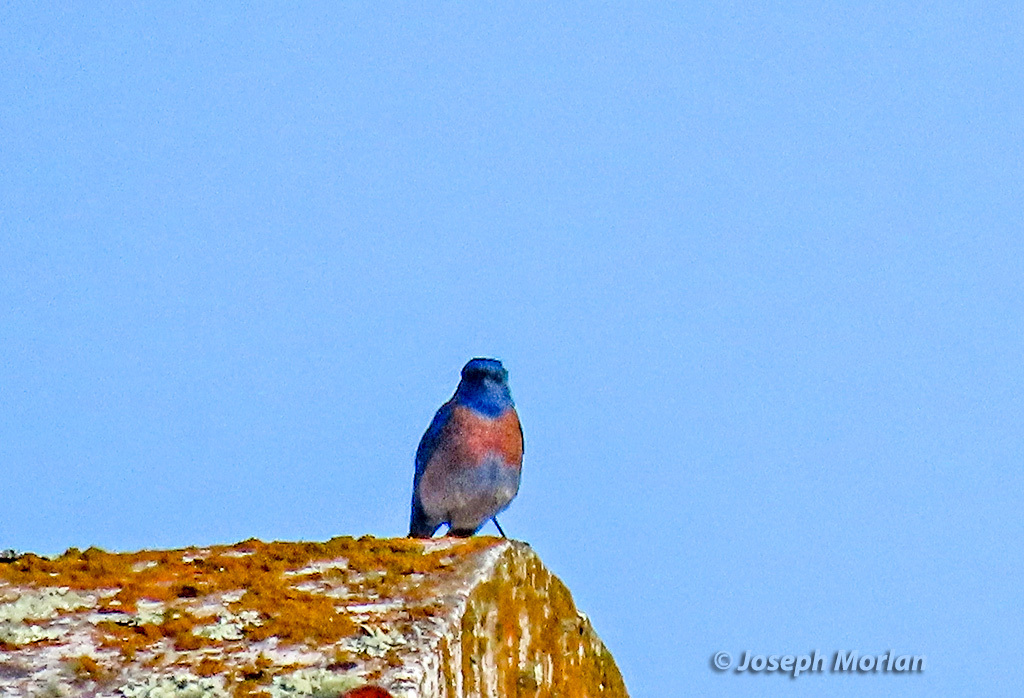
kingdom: Animalia
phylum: Chordata
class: Aves
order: Passeriformes
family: Turdidae
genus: Sialia
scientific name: Sialia mexicana
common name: Western bluebird
